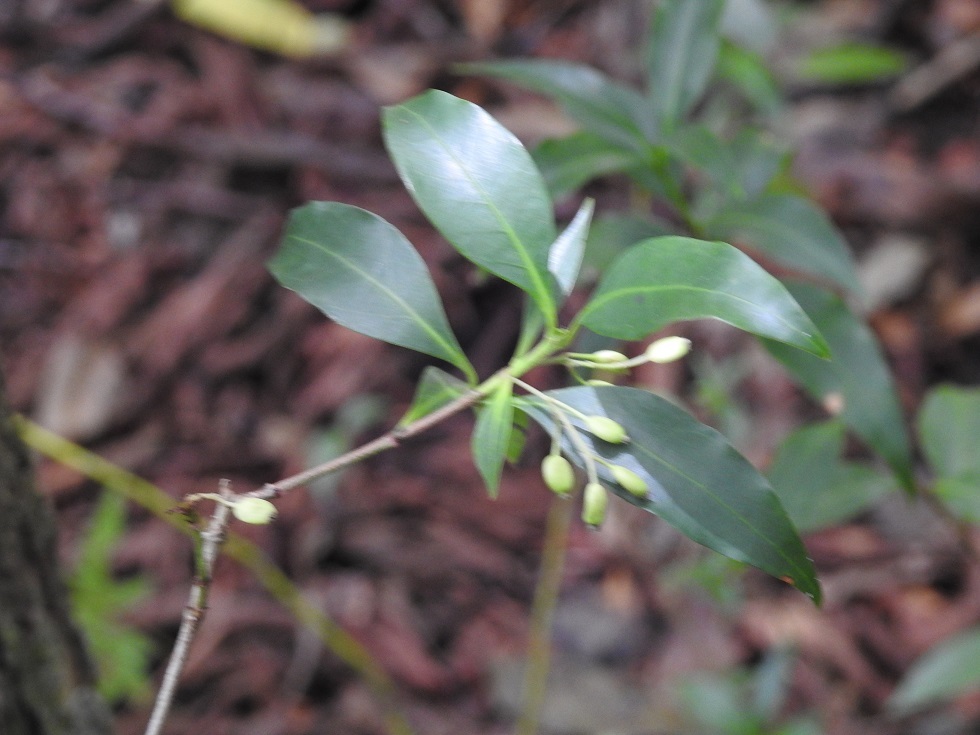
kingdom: Plantae
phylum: Tracheophyta
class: Magnoliopsida
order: Gentianales
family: Rubiaceae
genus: Chiococca
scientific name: Chiococca alba
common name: Snowberry
